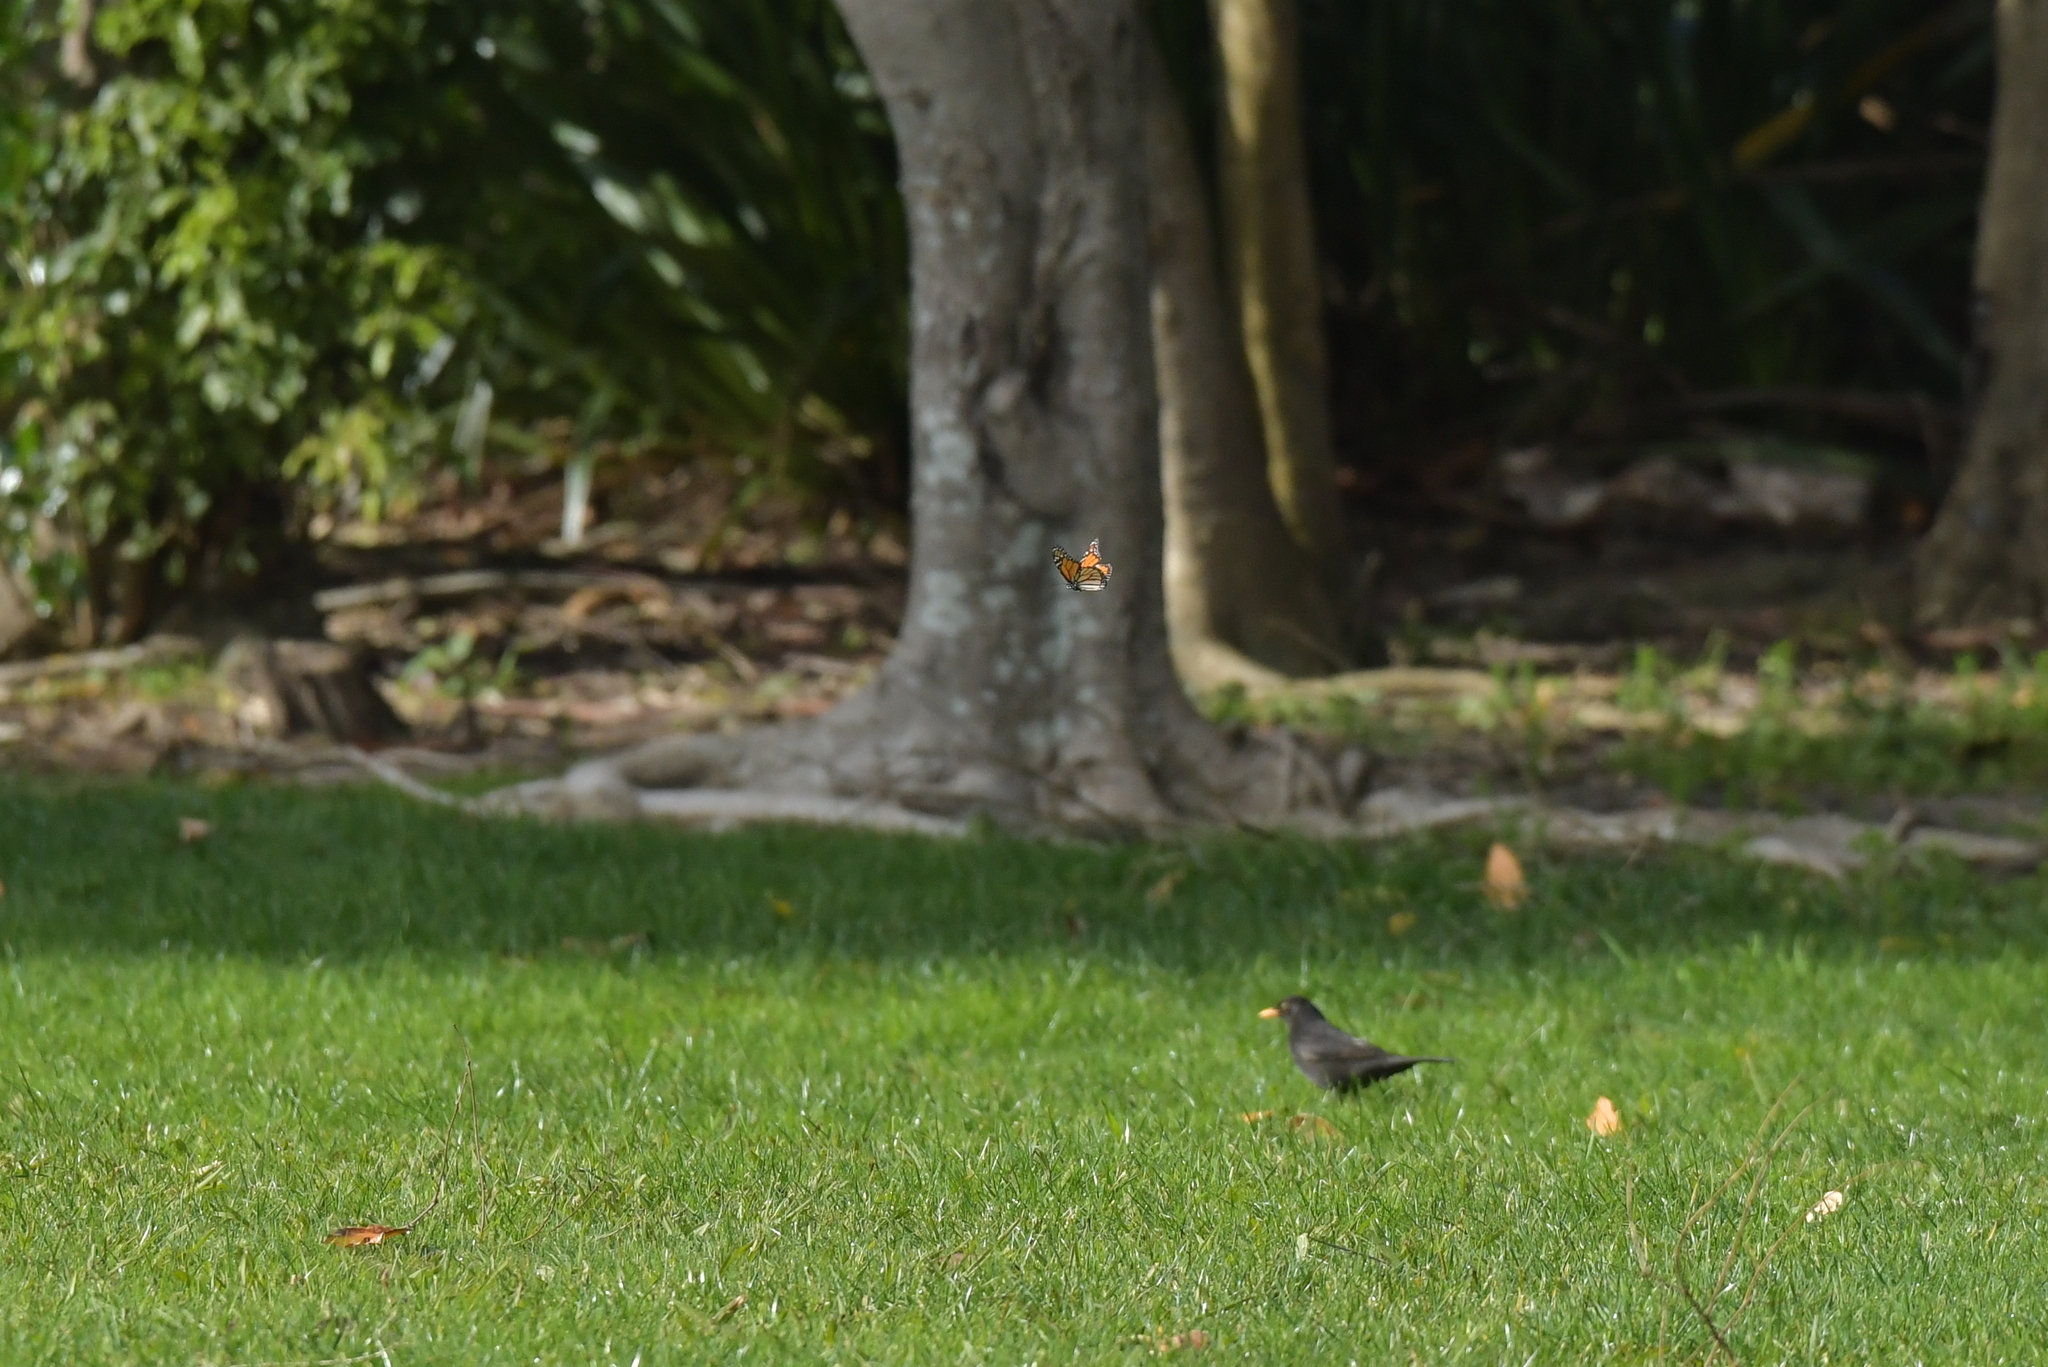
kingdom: Animalia
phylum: Arthropoda
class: Insecta
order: Lepidoptera
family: Nymphalidae
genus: Danaus
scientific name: Danaus plexippus
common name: Monarch
